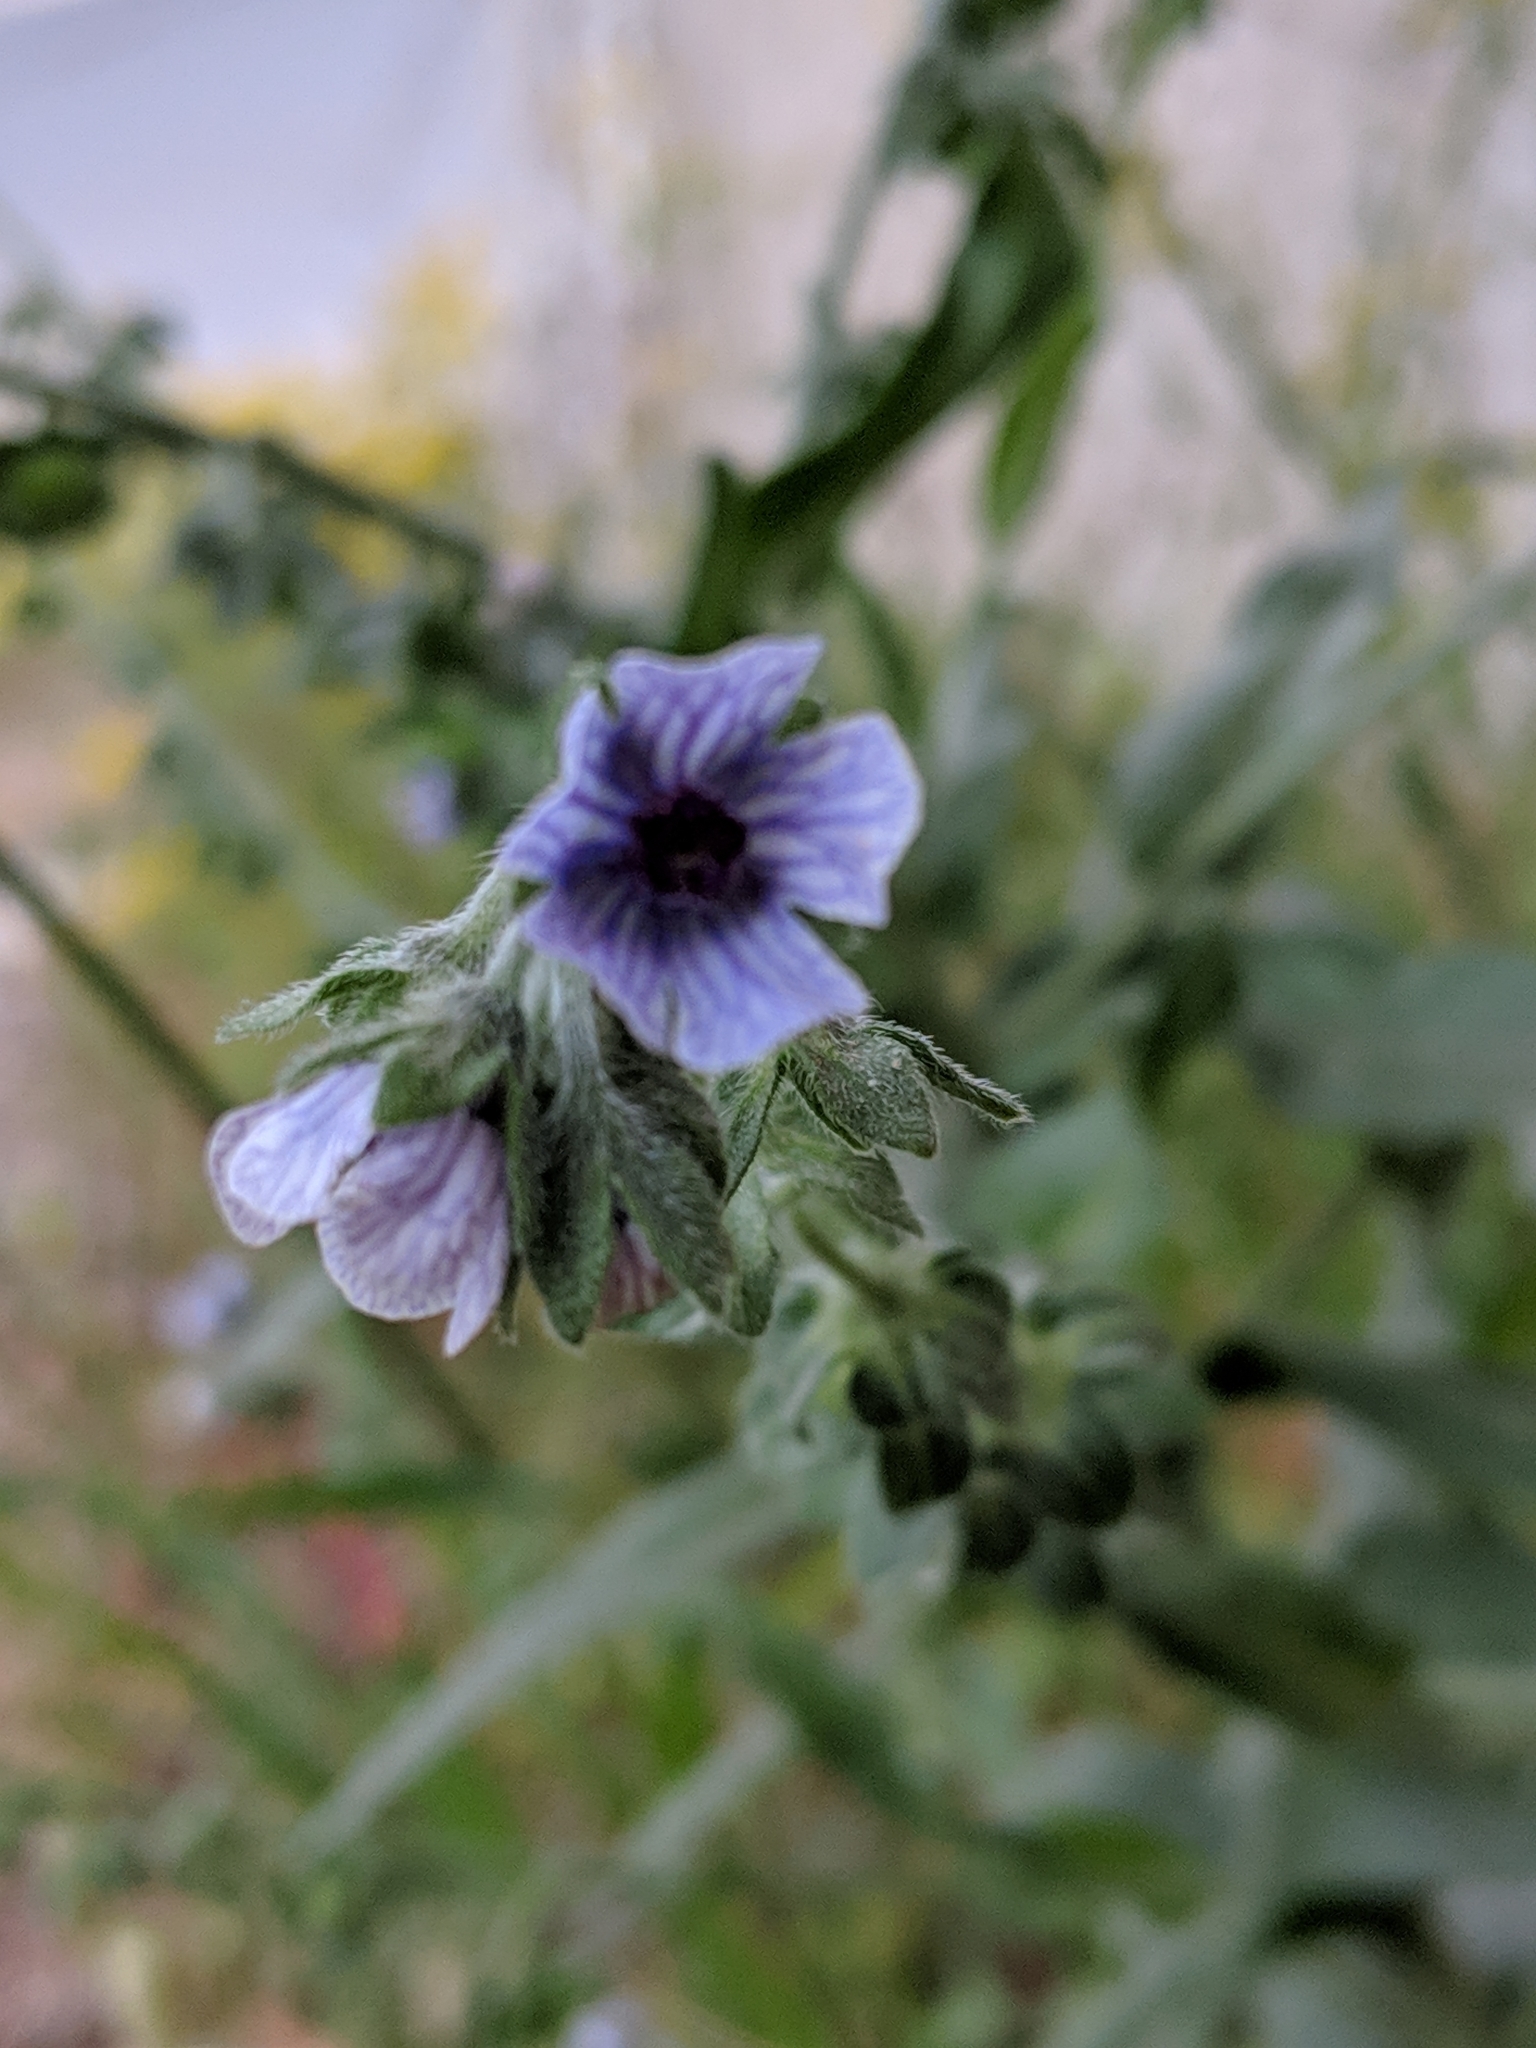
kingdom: Plantae
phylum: Tracheophyta
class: Magnoliopsida
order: Boraginales
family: Boraginaceae
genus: Cynoglossum
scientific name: Cynoglossum creticum
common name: Blue hound's tongue
